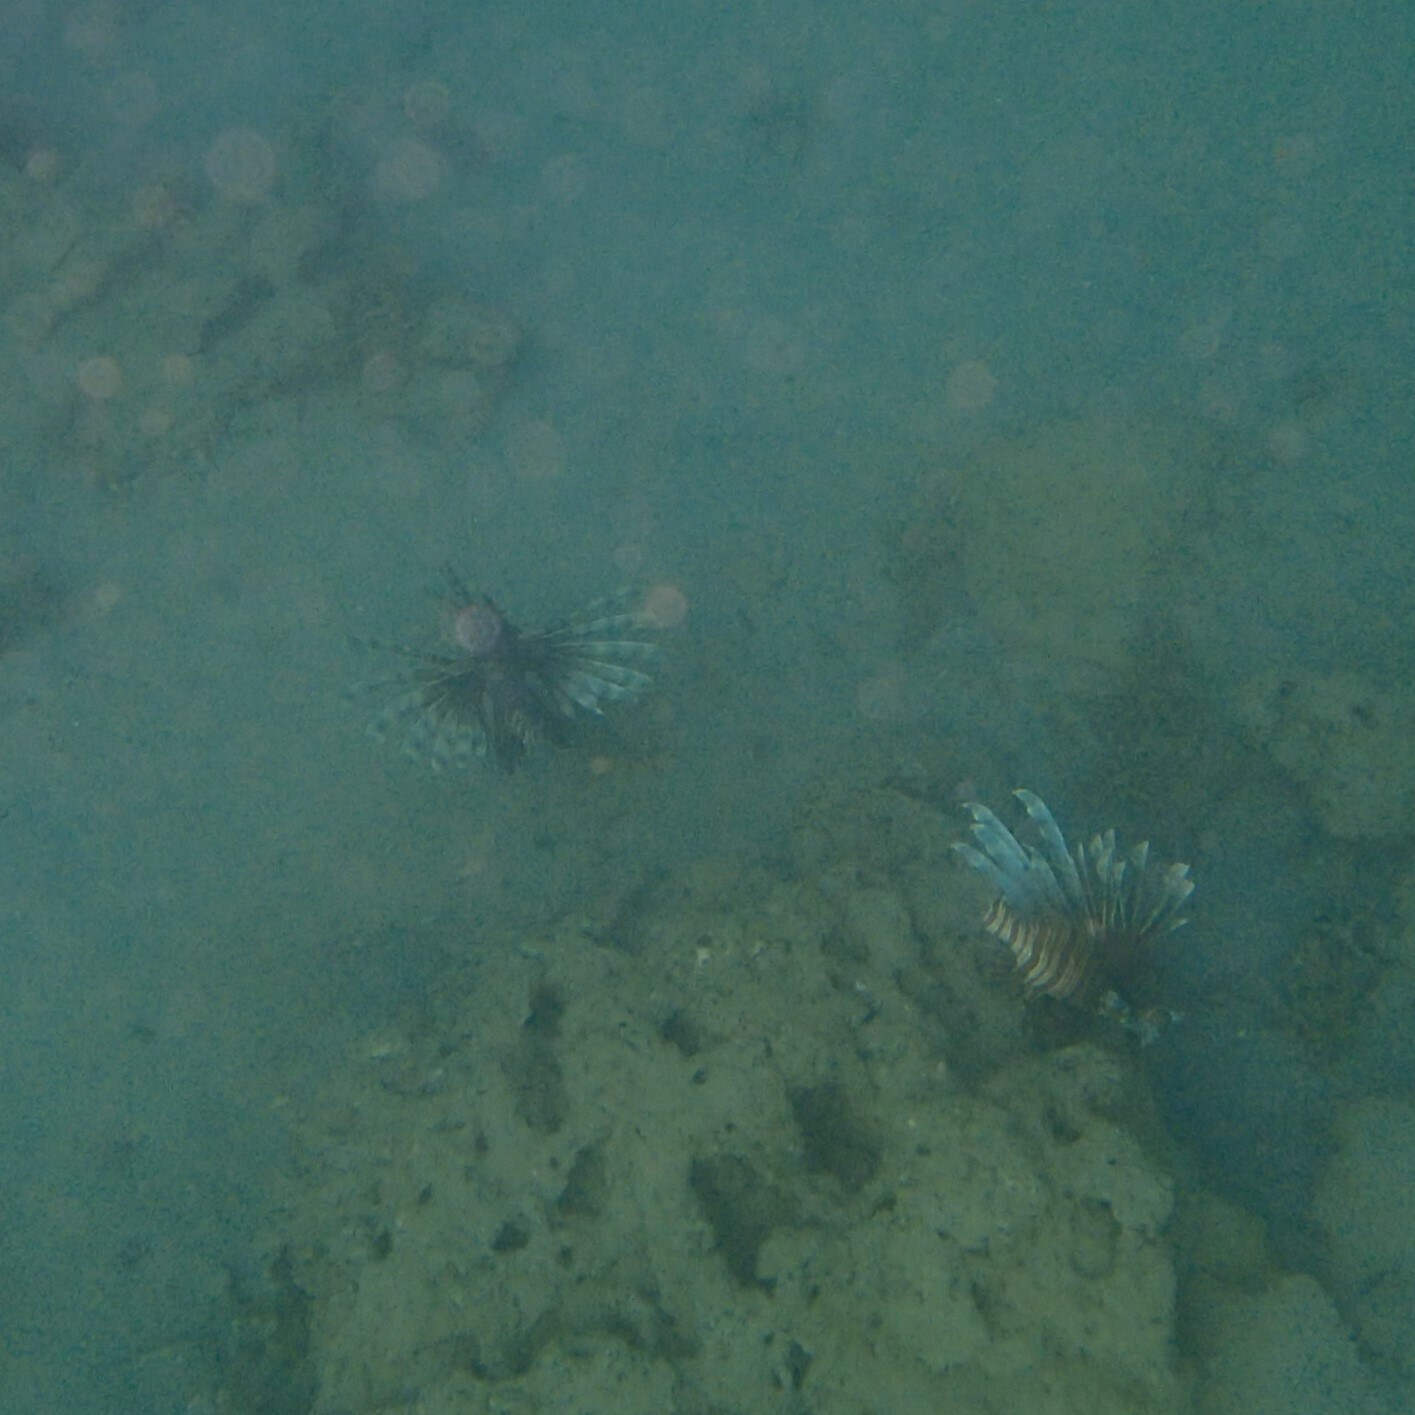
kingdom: Animalia
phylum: Chordata
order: Scorpaeniformes
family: Scorpaenidae
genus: Pterois
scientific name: Pterois volitans
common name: Lionfish
